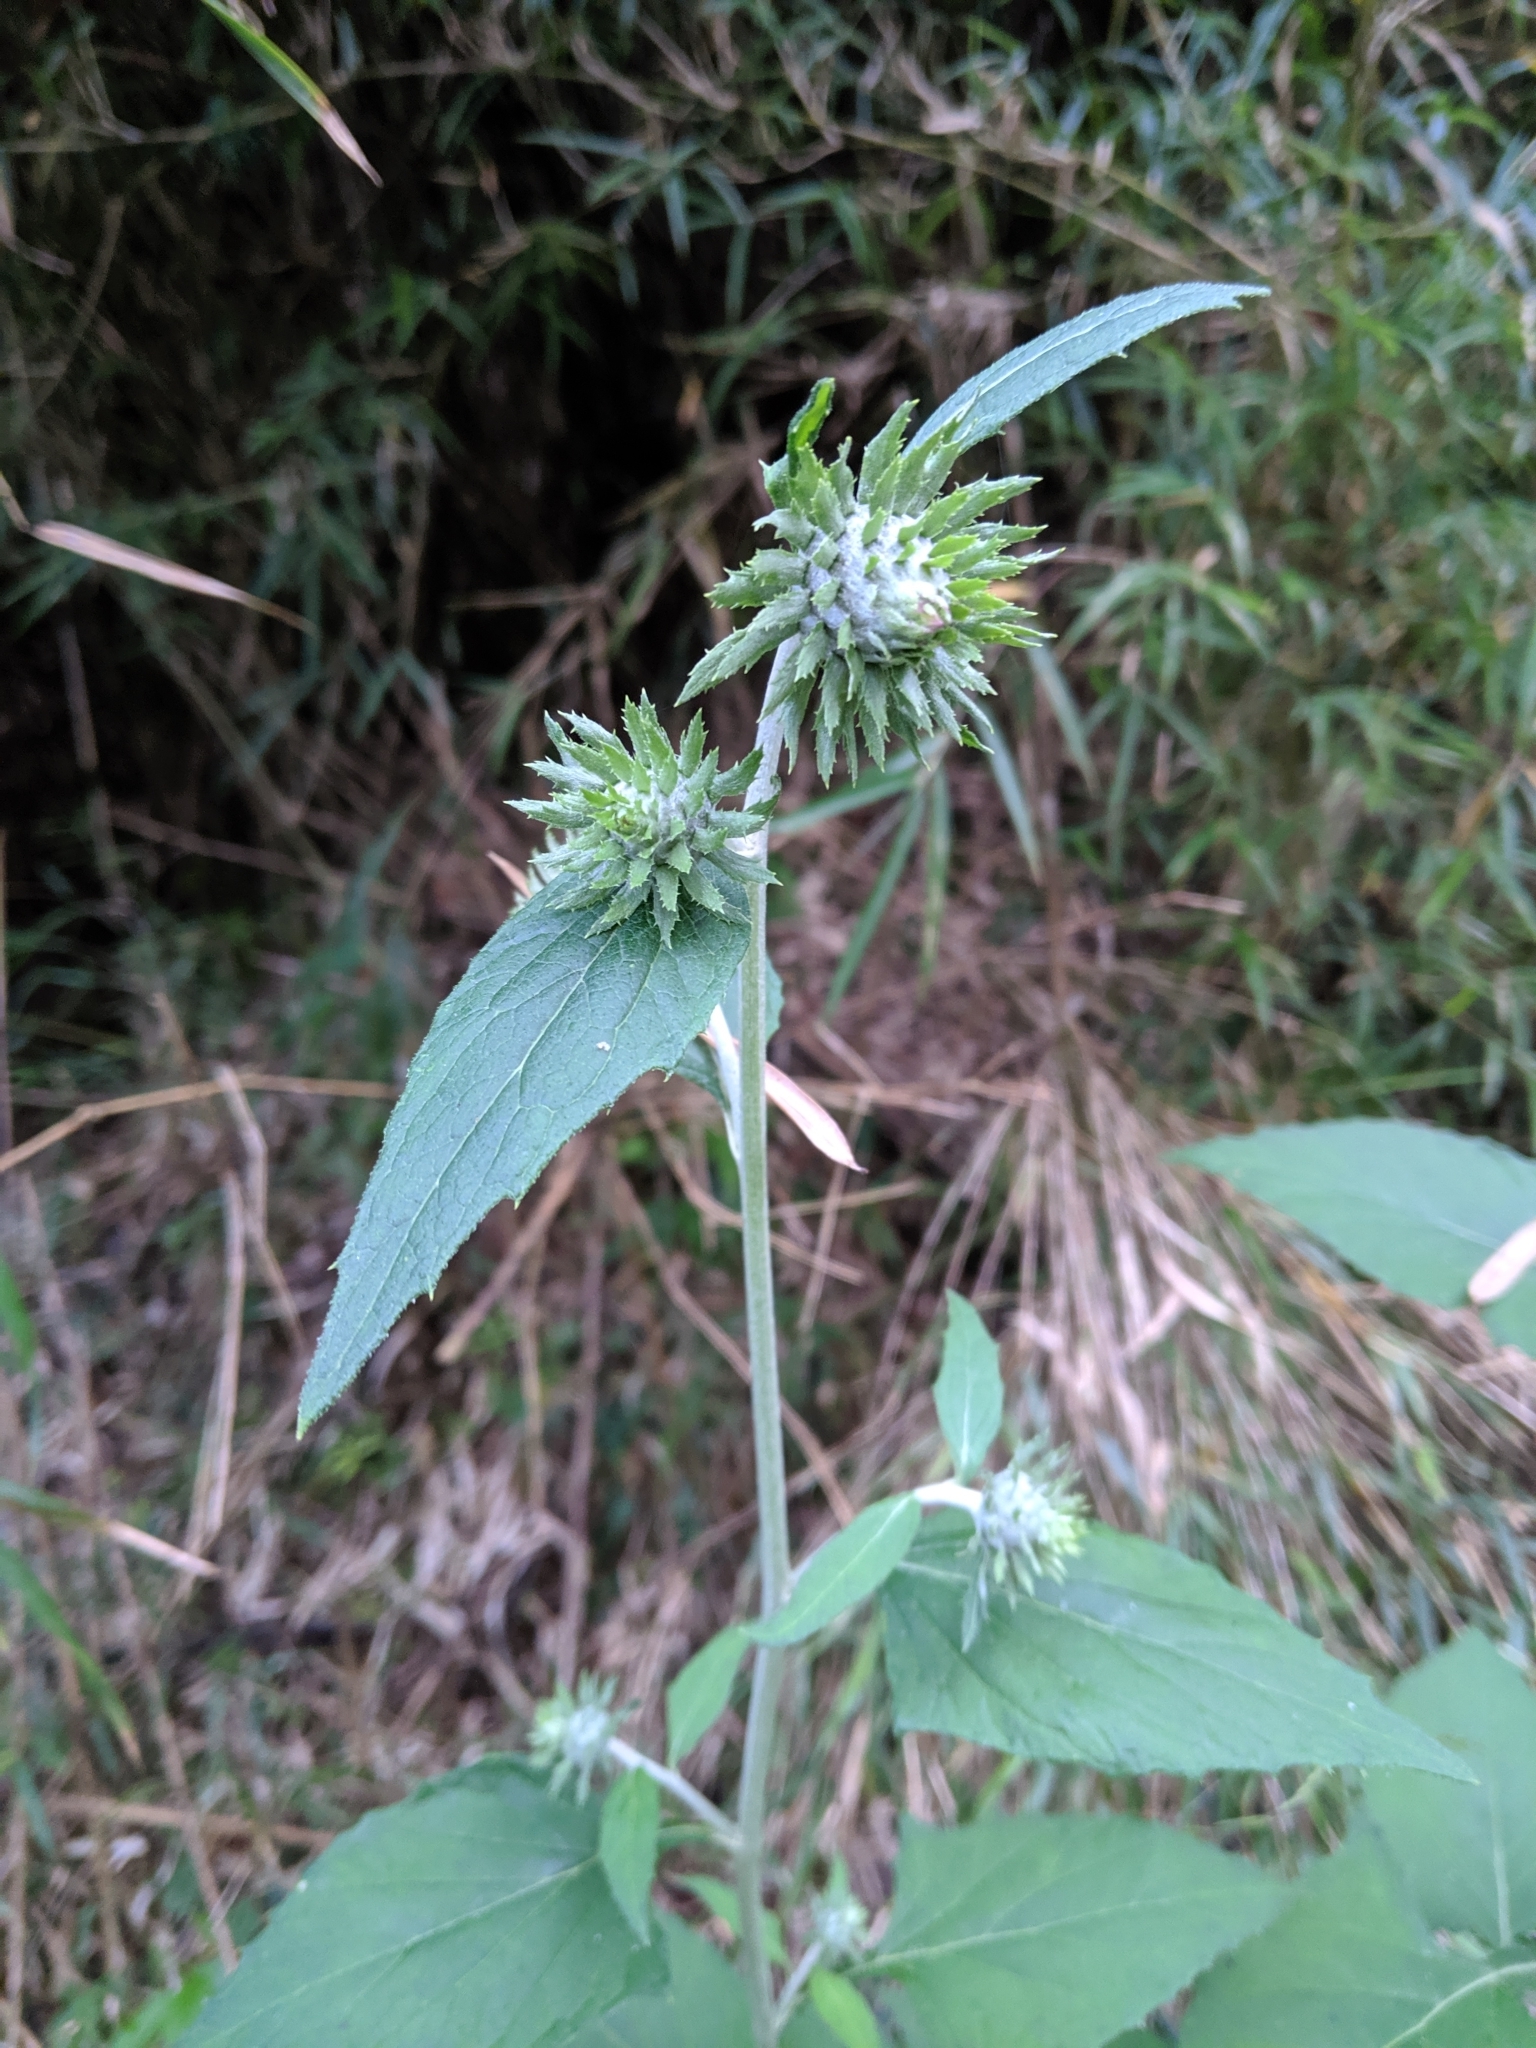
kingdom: Plantae
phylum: Tracheophyta
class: Magnoliopsida
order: Asterales
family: Asteraceae
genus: Jurinea
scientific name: Jurinea deltoidea
